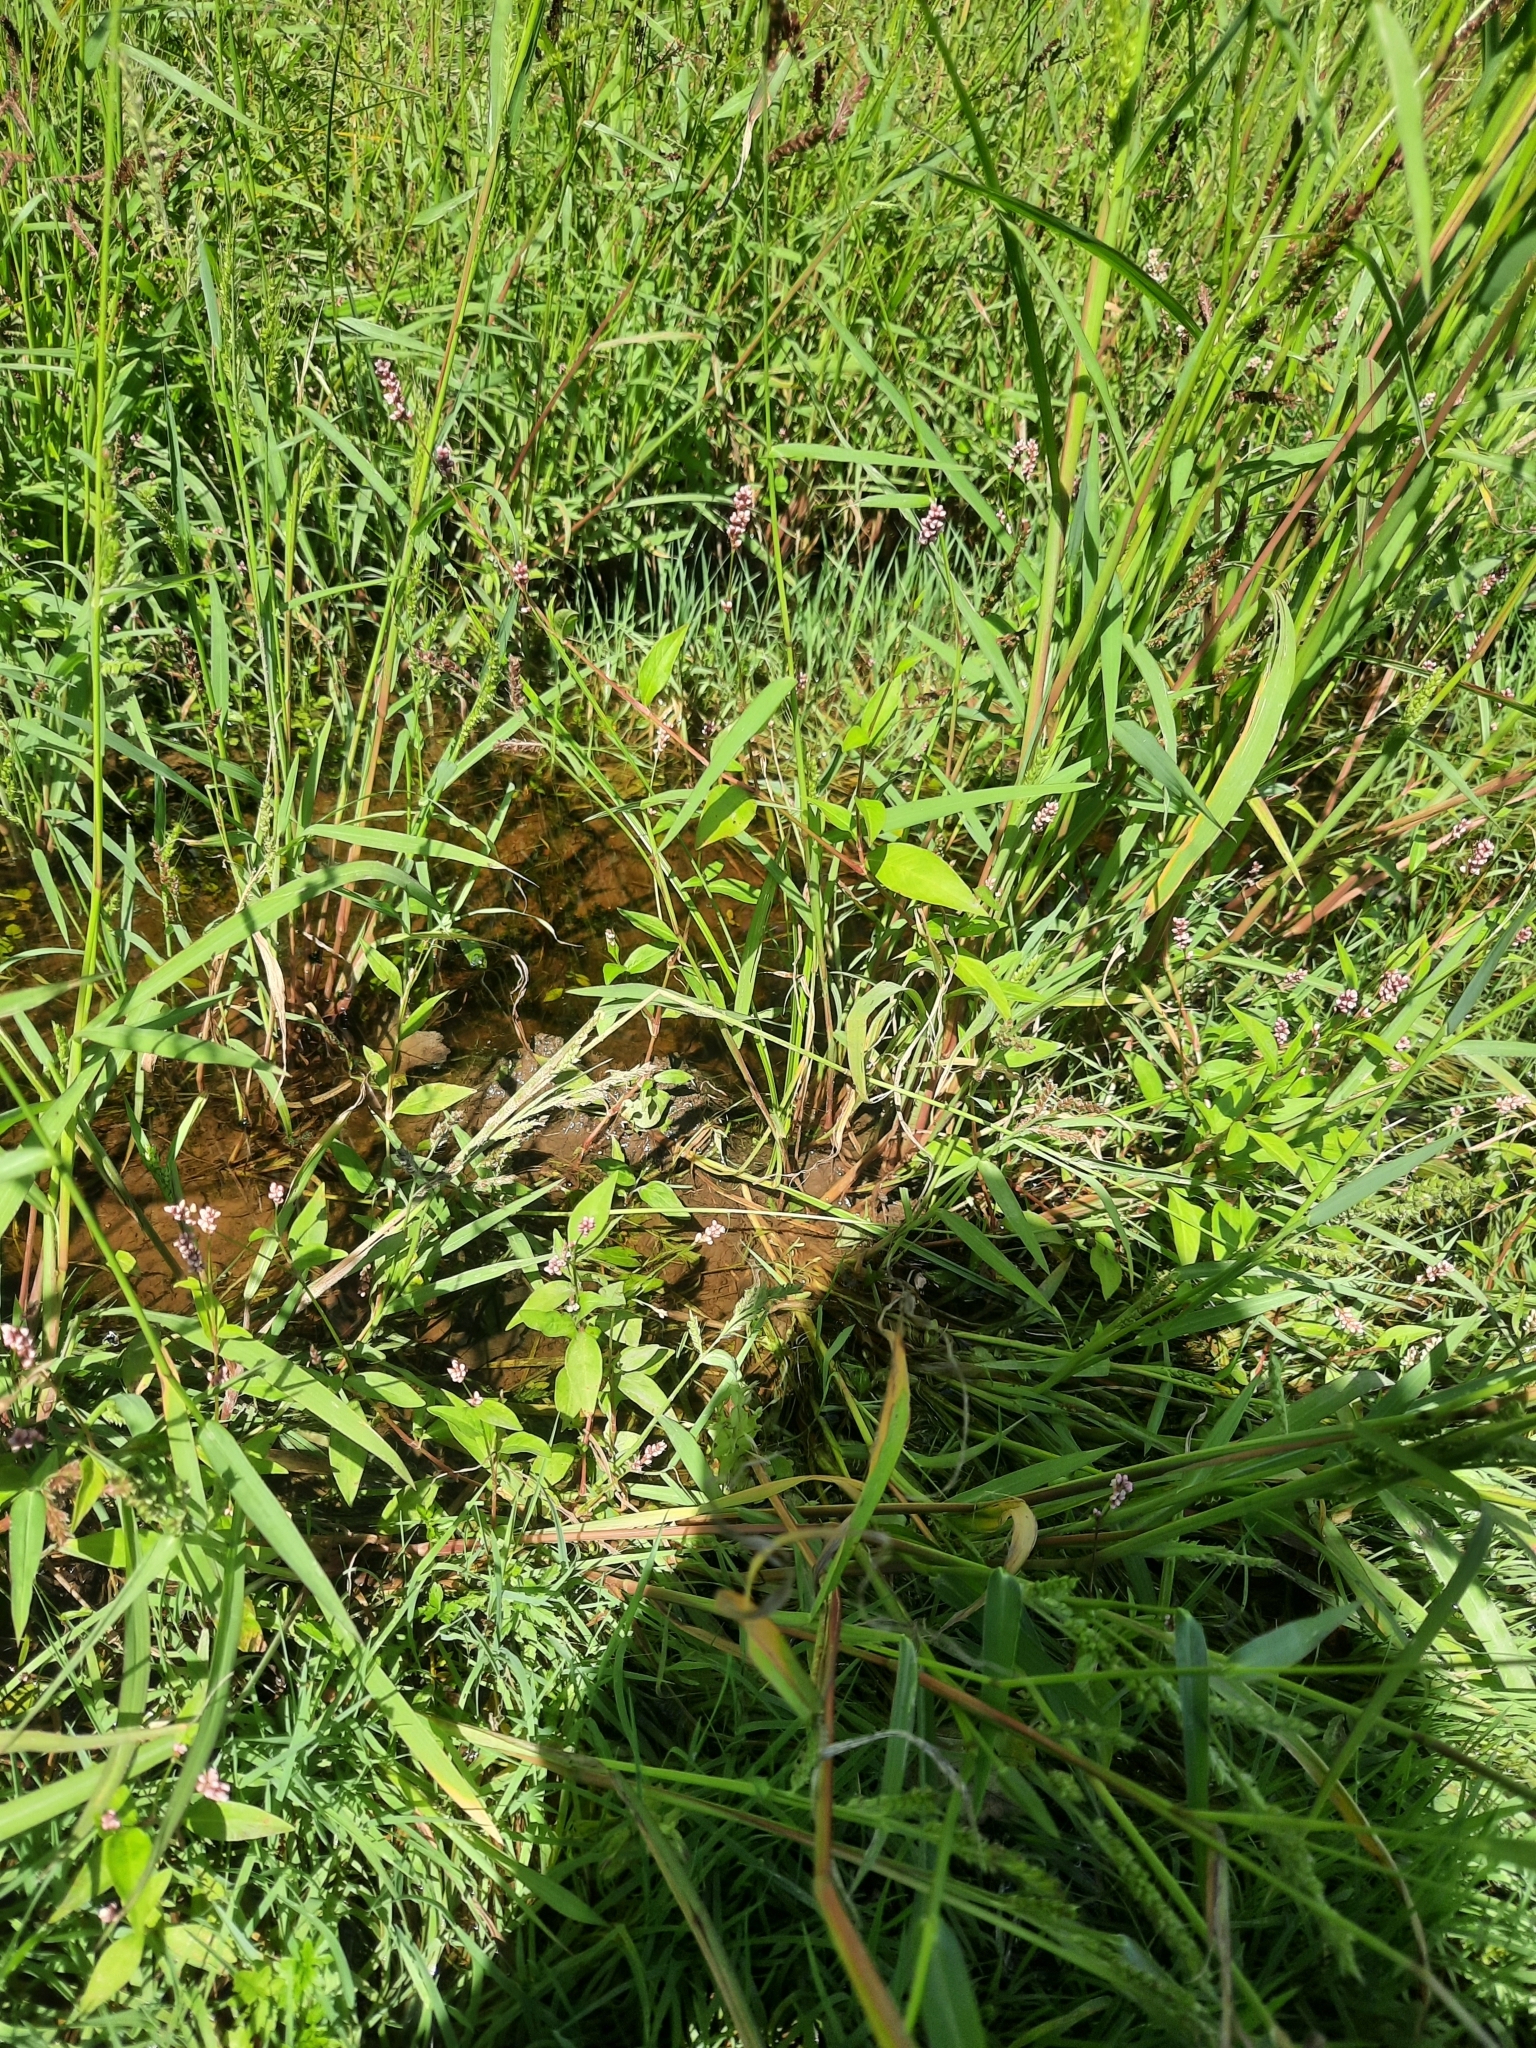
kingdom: Plantae
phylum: Tracheophyta
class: Magnoliopsida
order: Caryophyllales
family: Polygonaceae
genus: Persicaria
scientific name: Persicaria longiseta
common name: Bristly lady's-thumb
